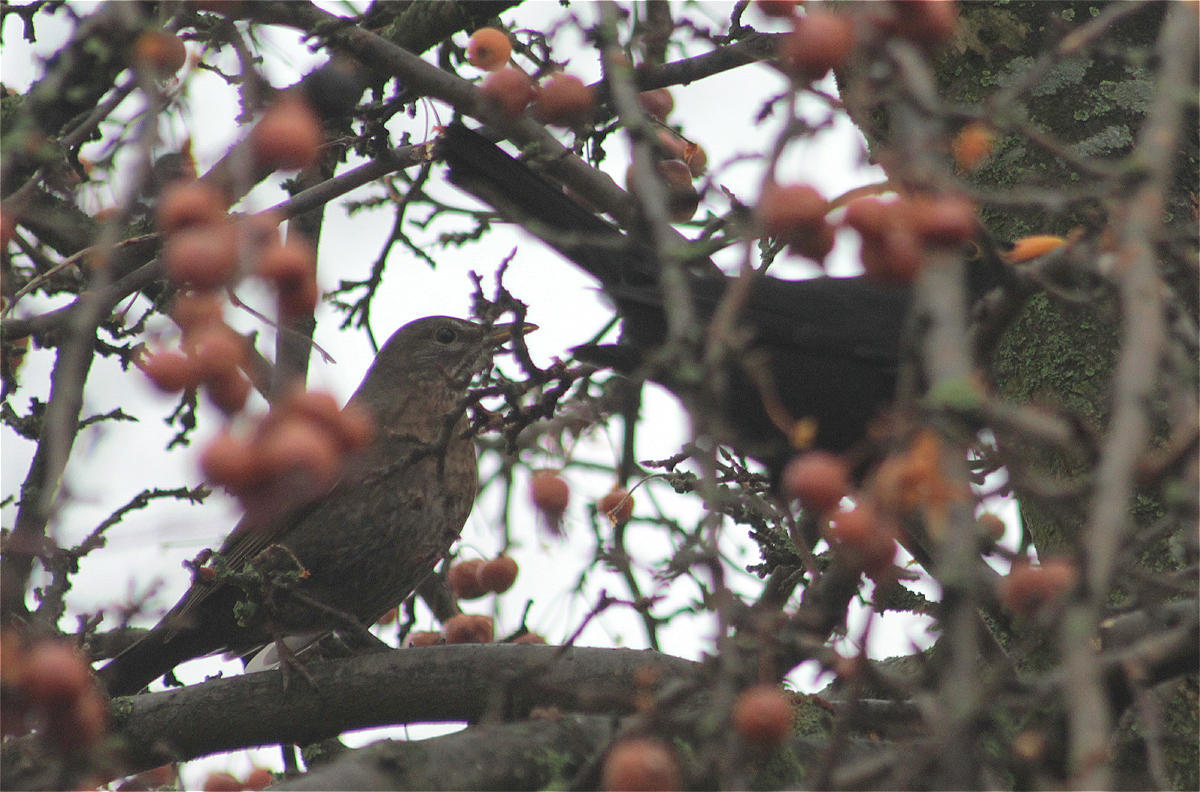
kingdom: Animalia
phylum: Chordata
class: Aves
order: Passeriformes
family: Turdidae
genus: Turdus
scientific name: Turdus merula
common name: Common blackbird
